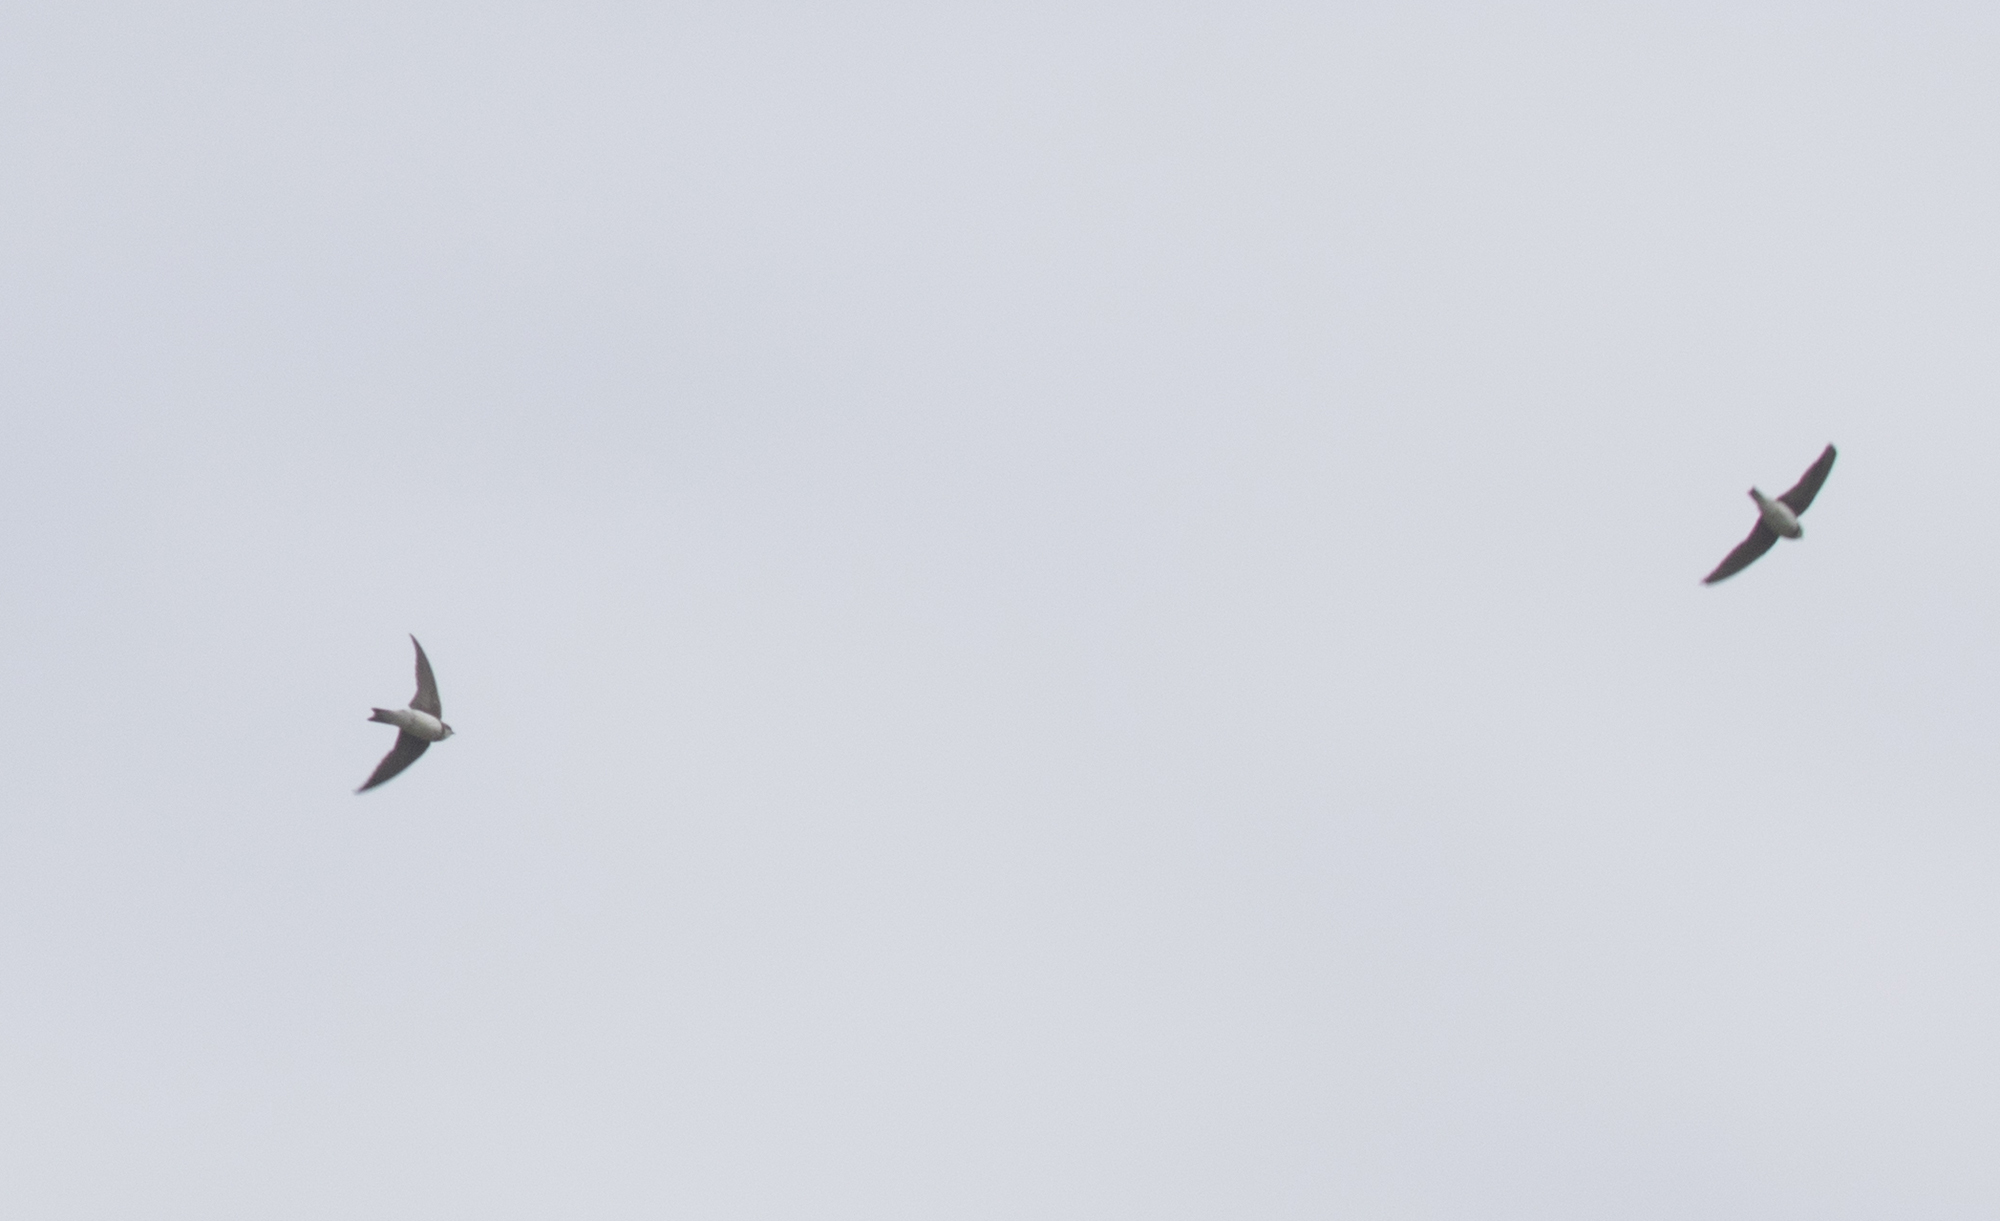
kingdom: Animalia
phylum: Chordata
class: Aves
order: Passeriformes
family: Hirundinidae
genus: Riparia
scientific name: Riparia riparia
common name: Sand martin
